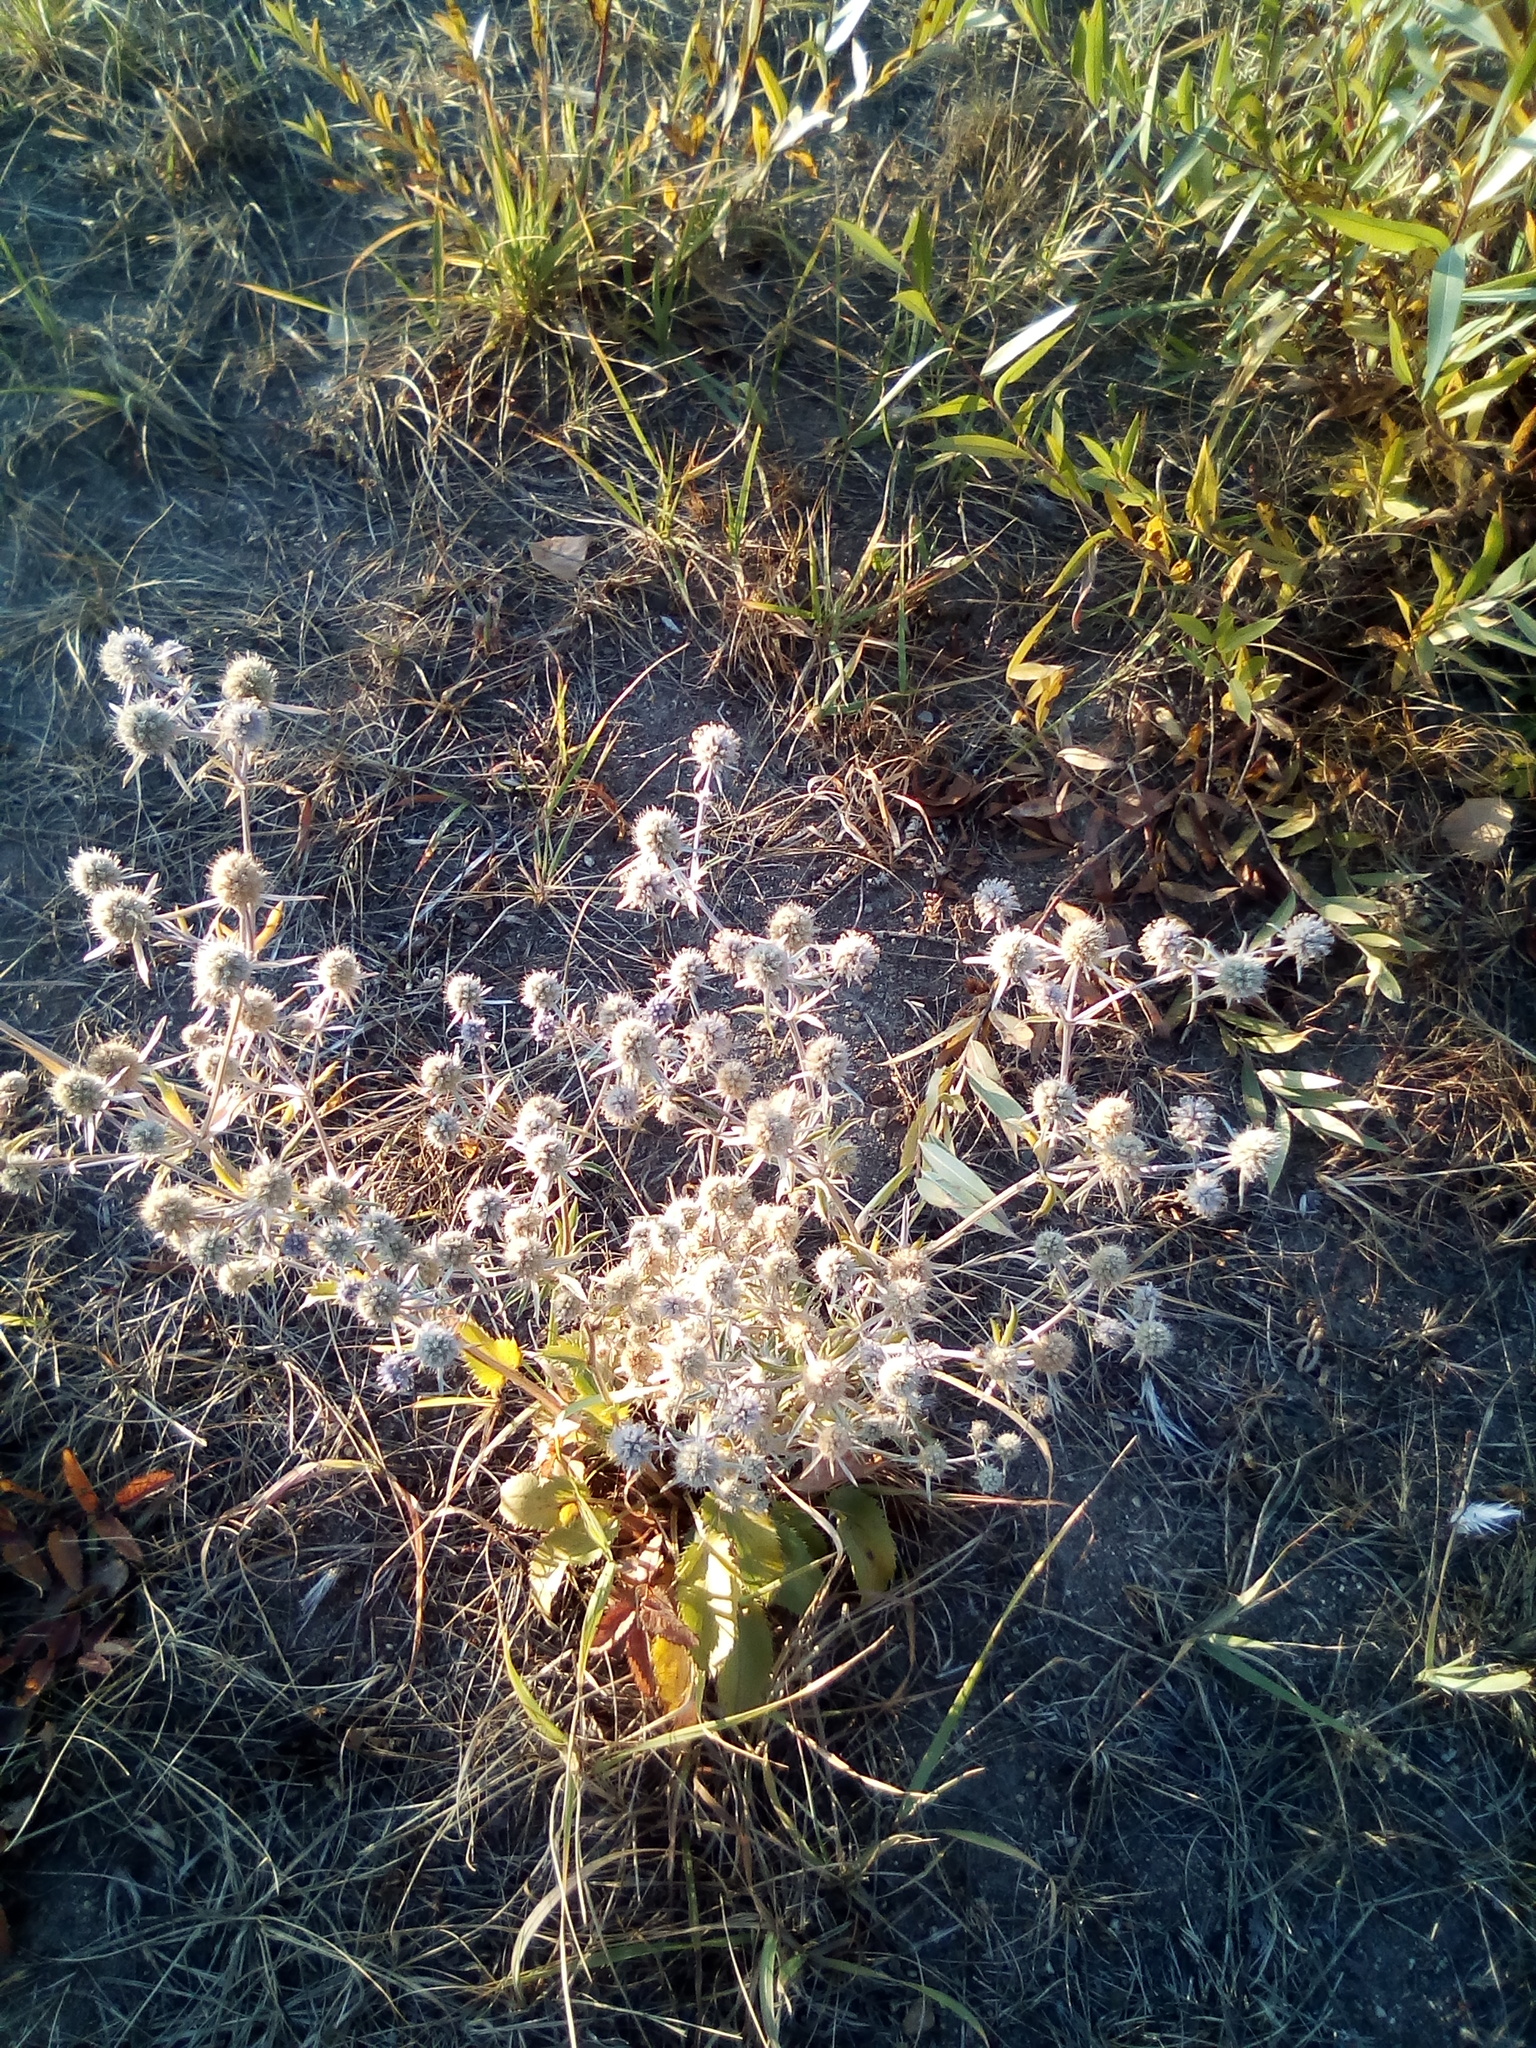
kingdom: Plantae
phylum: Tracheophyta
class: Magnoliopsida
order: Apiales
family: Apiaceae
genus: Eryngium
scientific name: Eryngium planum
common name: Blue eryngo
